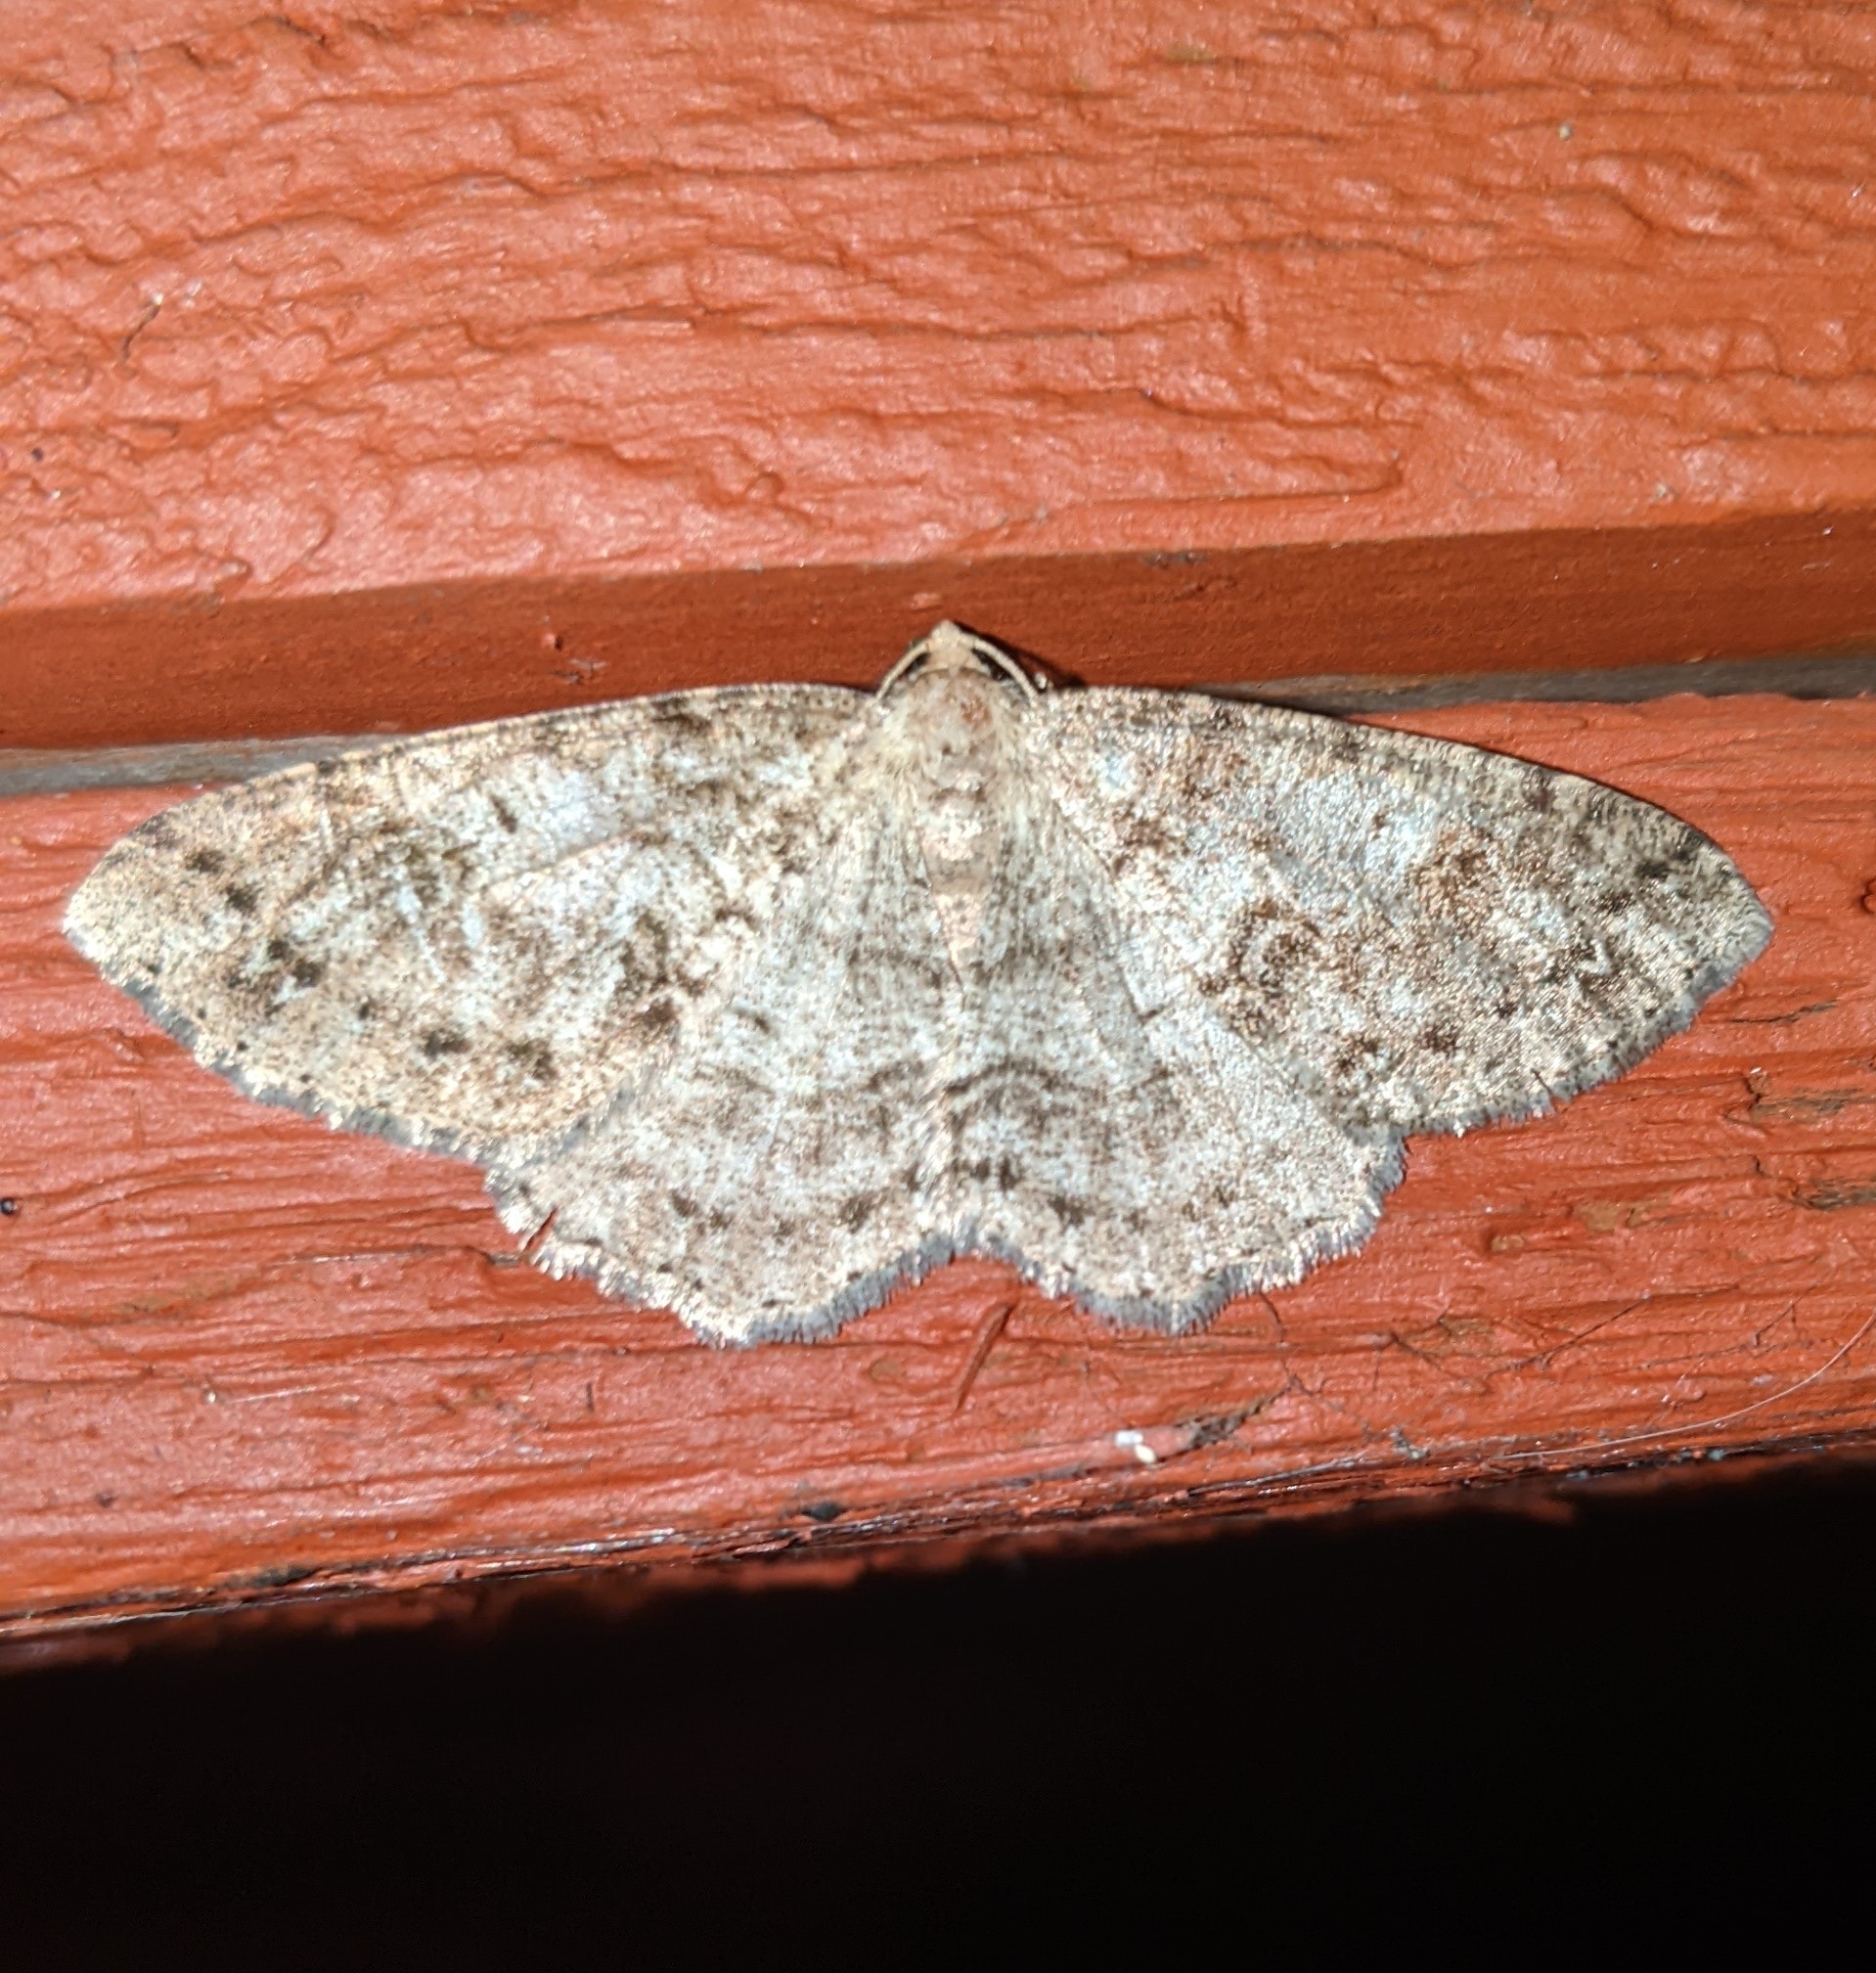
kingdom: Animalia
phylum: Arthropoda
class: Insecta
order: Lepidoptera
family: Geometridae
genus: Melanolophia
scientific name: Melanolophia imitata
